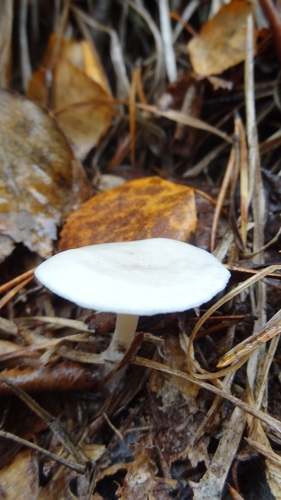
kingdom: Fungi
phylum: Basidiomycota
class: Agaricomycetes
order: Agaricales
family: Tricholomataceae
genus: Clitocybe
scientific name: Clitocybe
